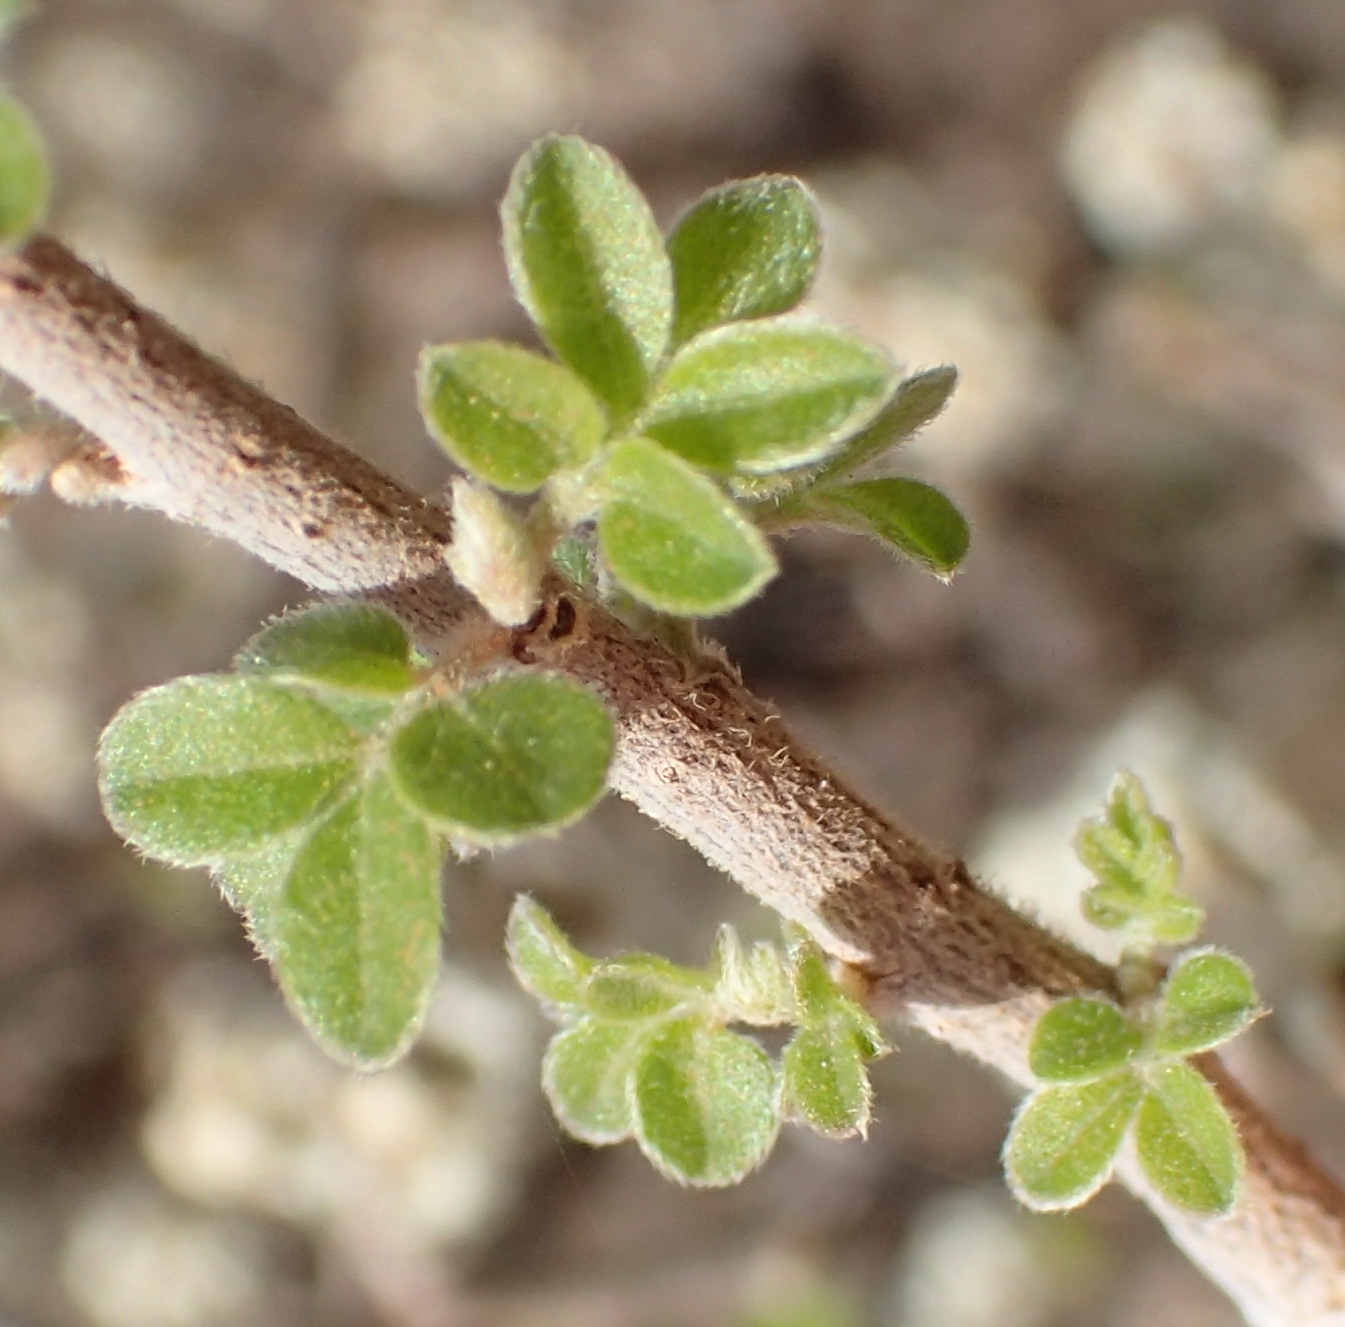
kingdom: Plantae
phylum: Tracheophyta
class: Magnoliopsida
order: Sapindales
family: Anacardiaceae
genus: Rhus
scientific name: Rhus microphylla
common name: Desert sumac
